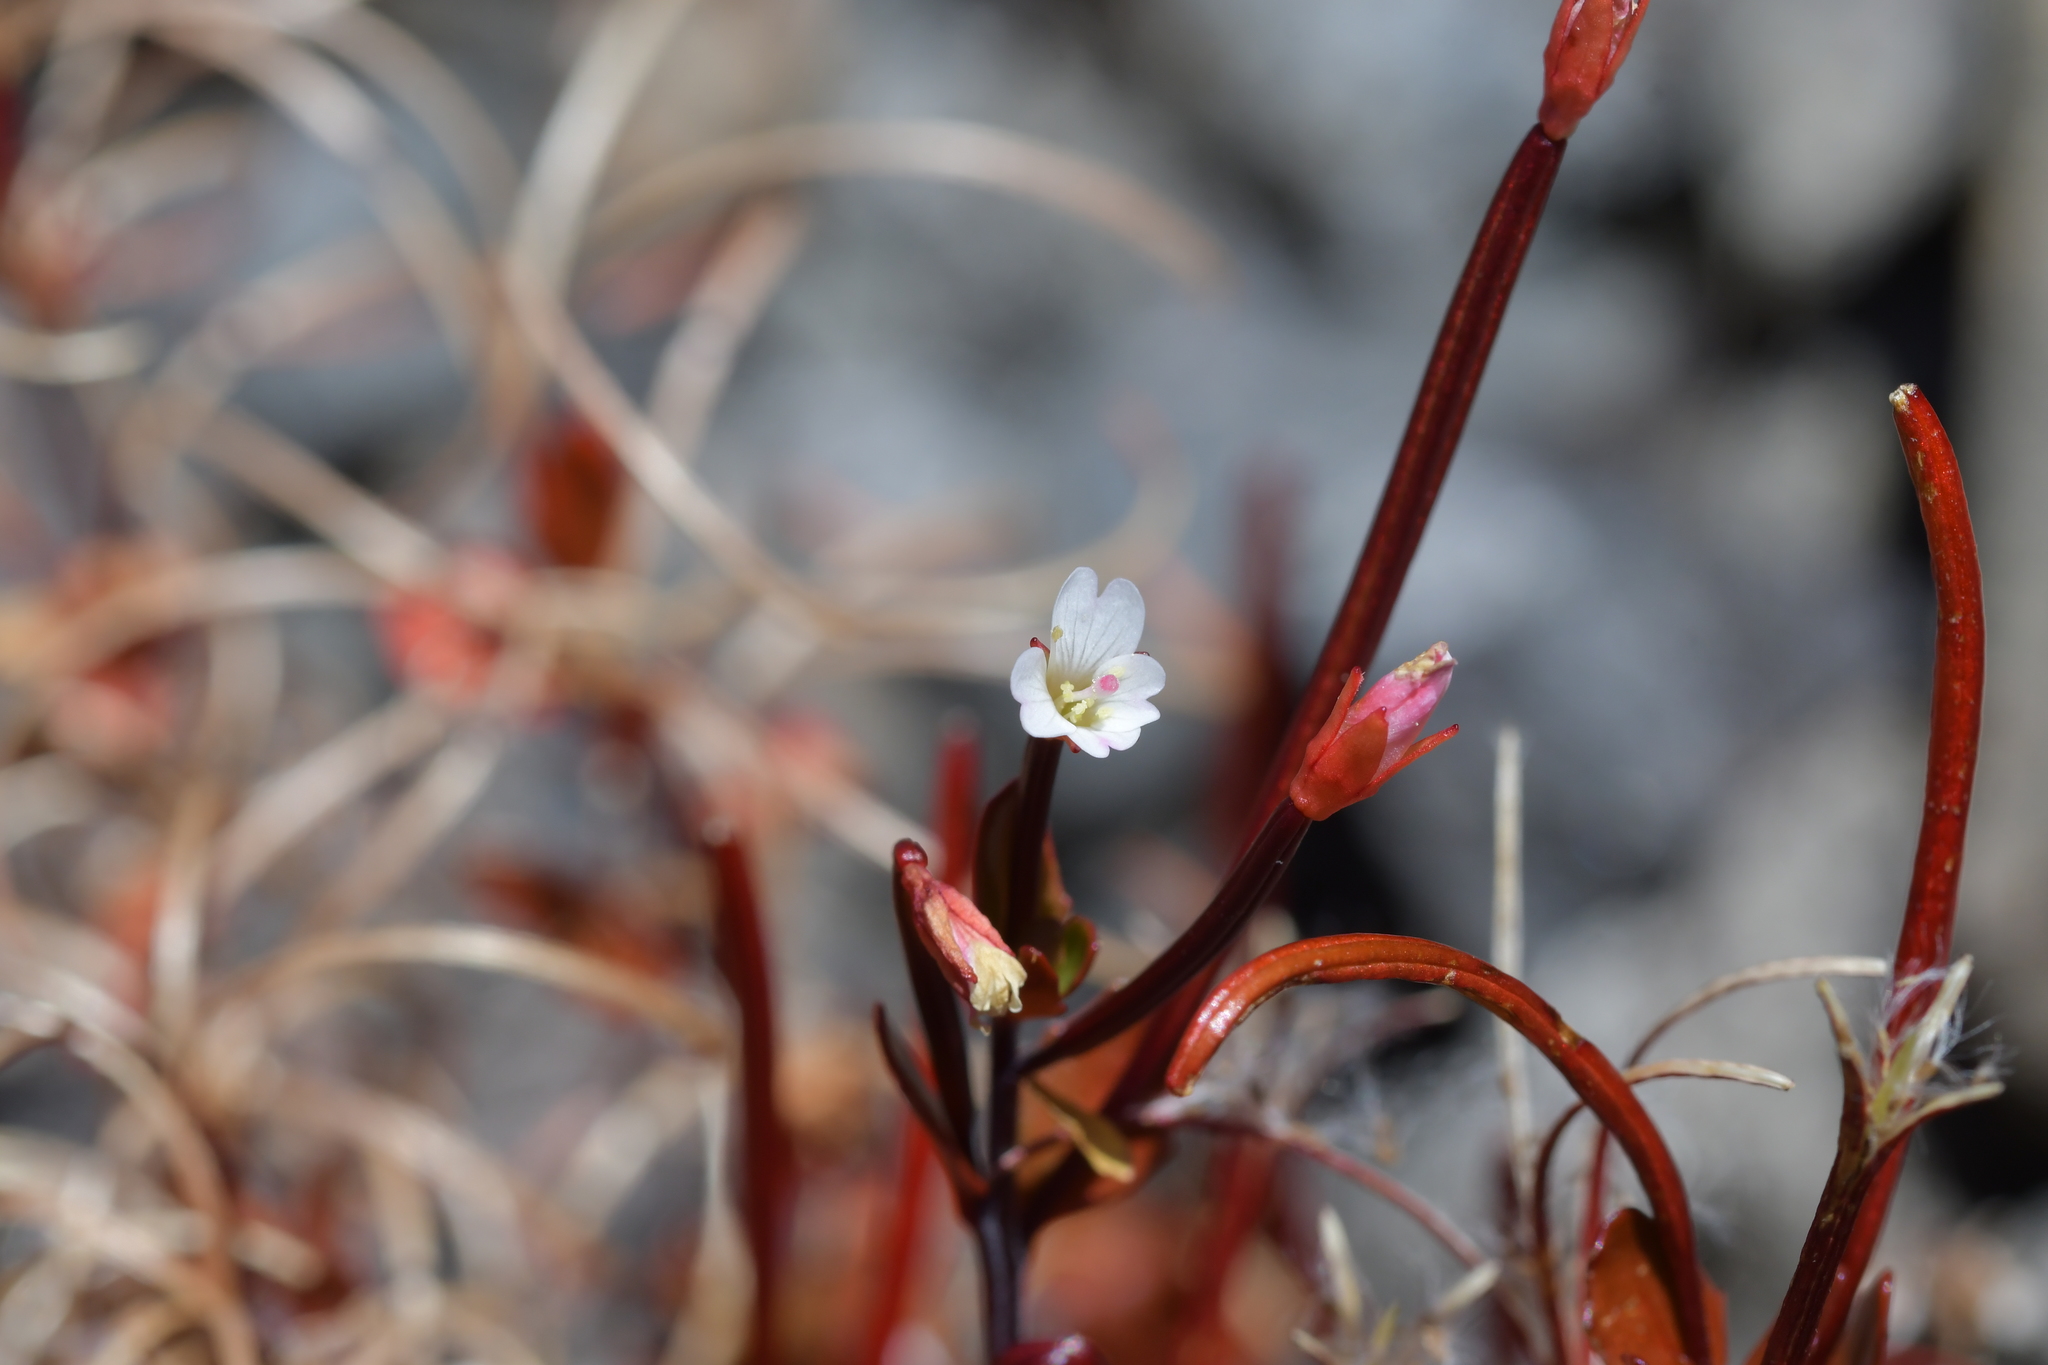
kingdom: Plantae
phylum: Tracheophyta
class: Magnoliopsida
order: Myrtales
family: Onagraceae
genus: Epilobium
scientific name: Epilobium glabellum
